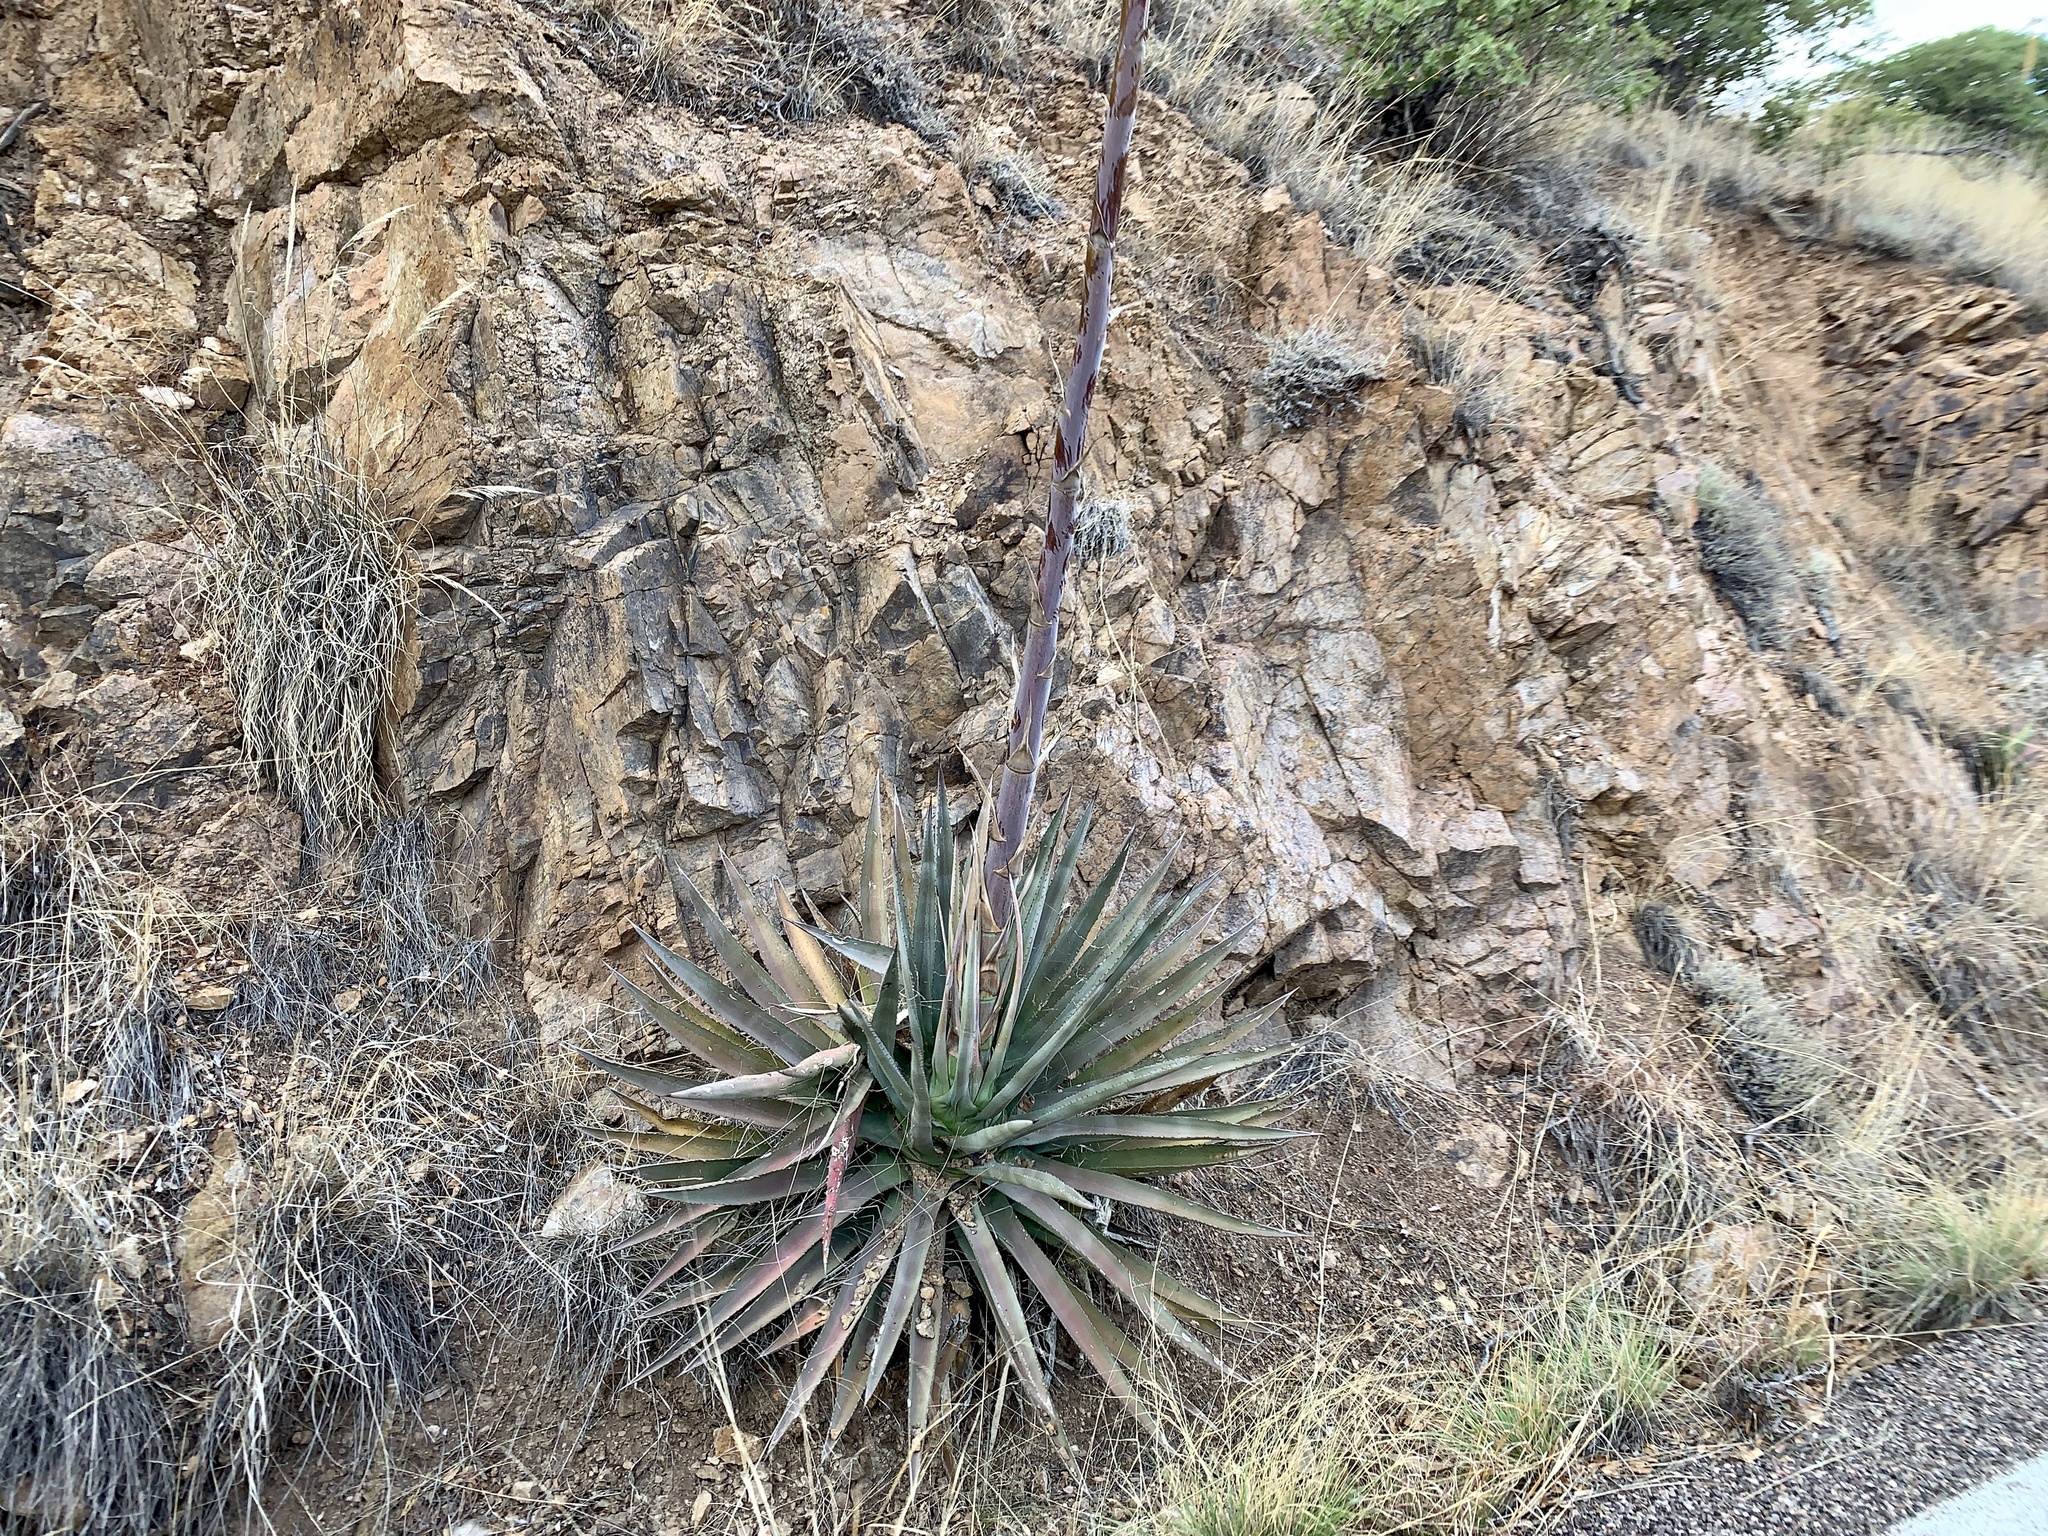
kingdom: Plantae
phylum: Tracheophyta
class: Liliopsida
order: Asparagales
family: Asparagaceae
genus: Agave
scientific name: Agave palmeri
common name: Palmer agave
